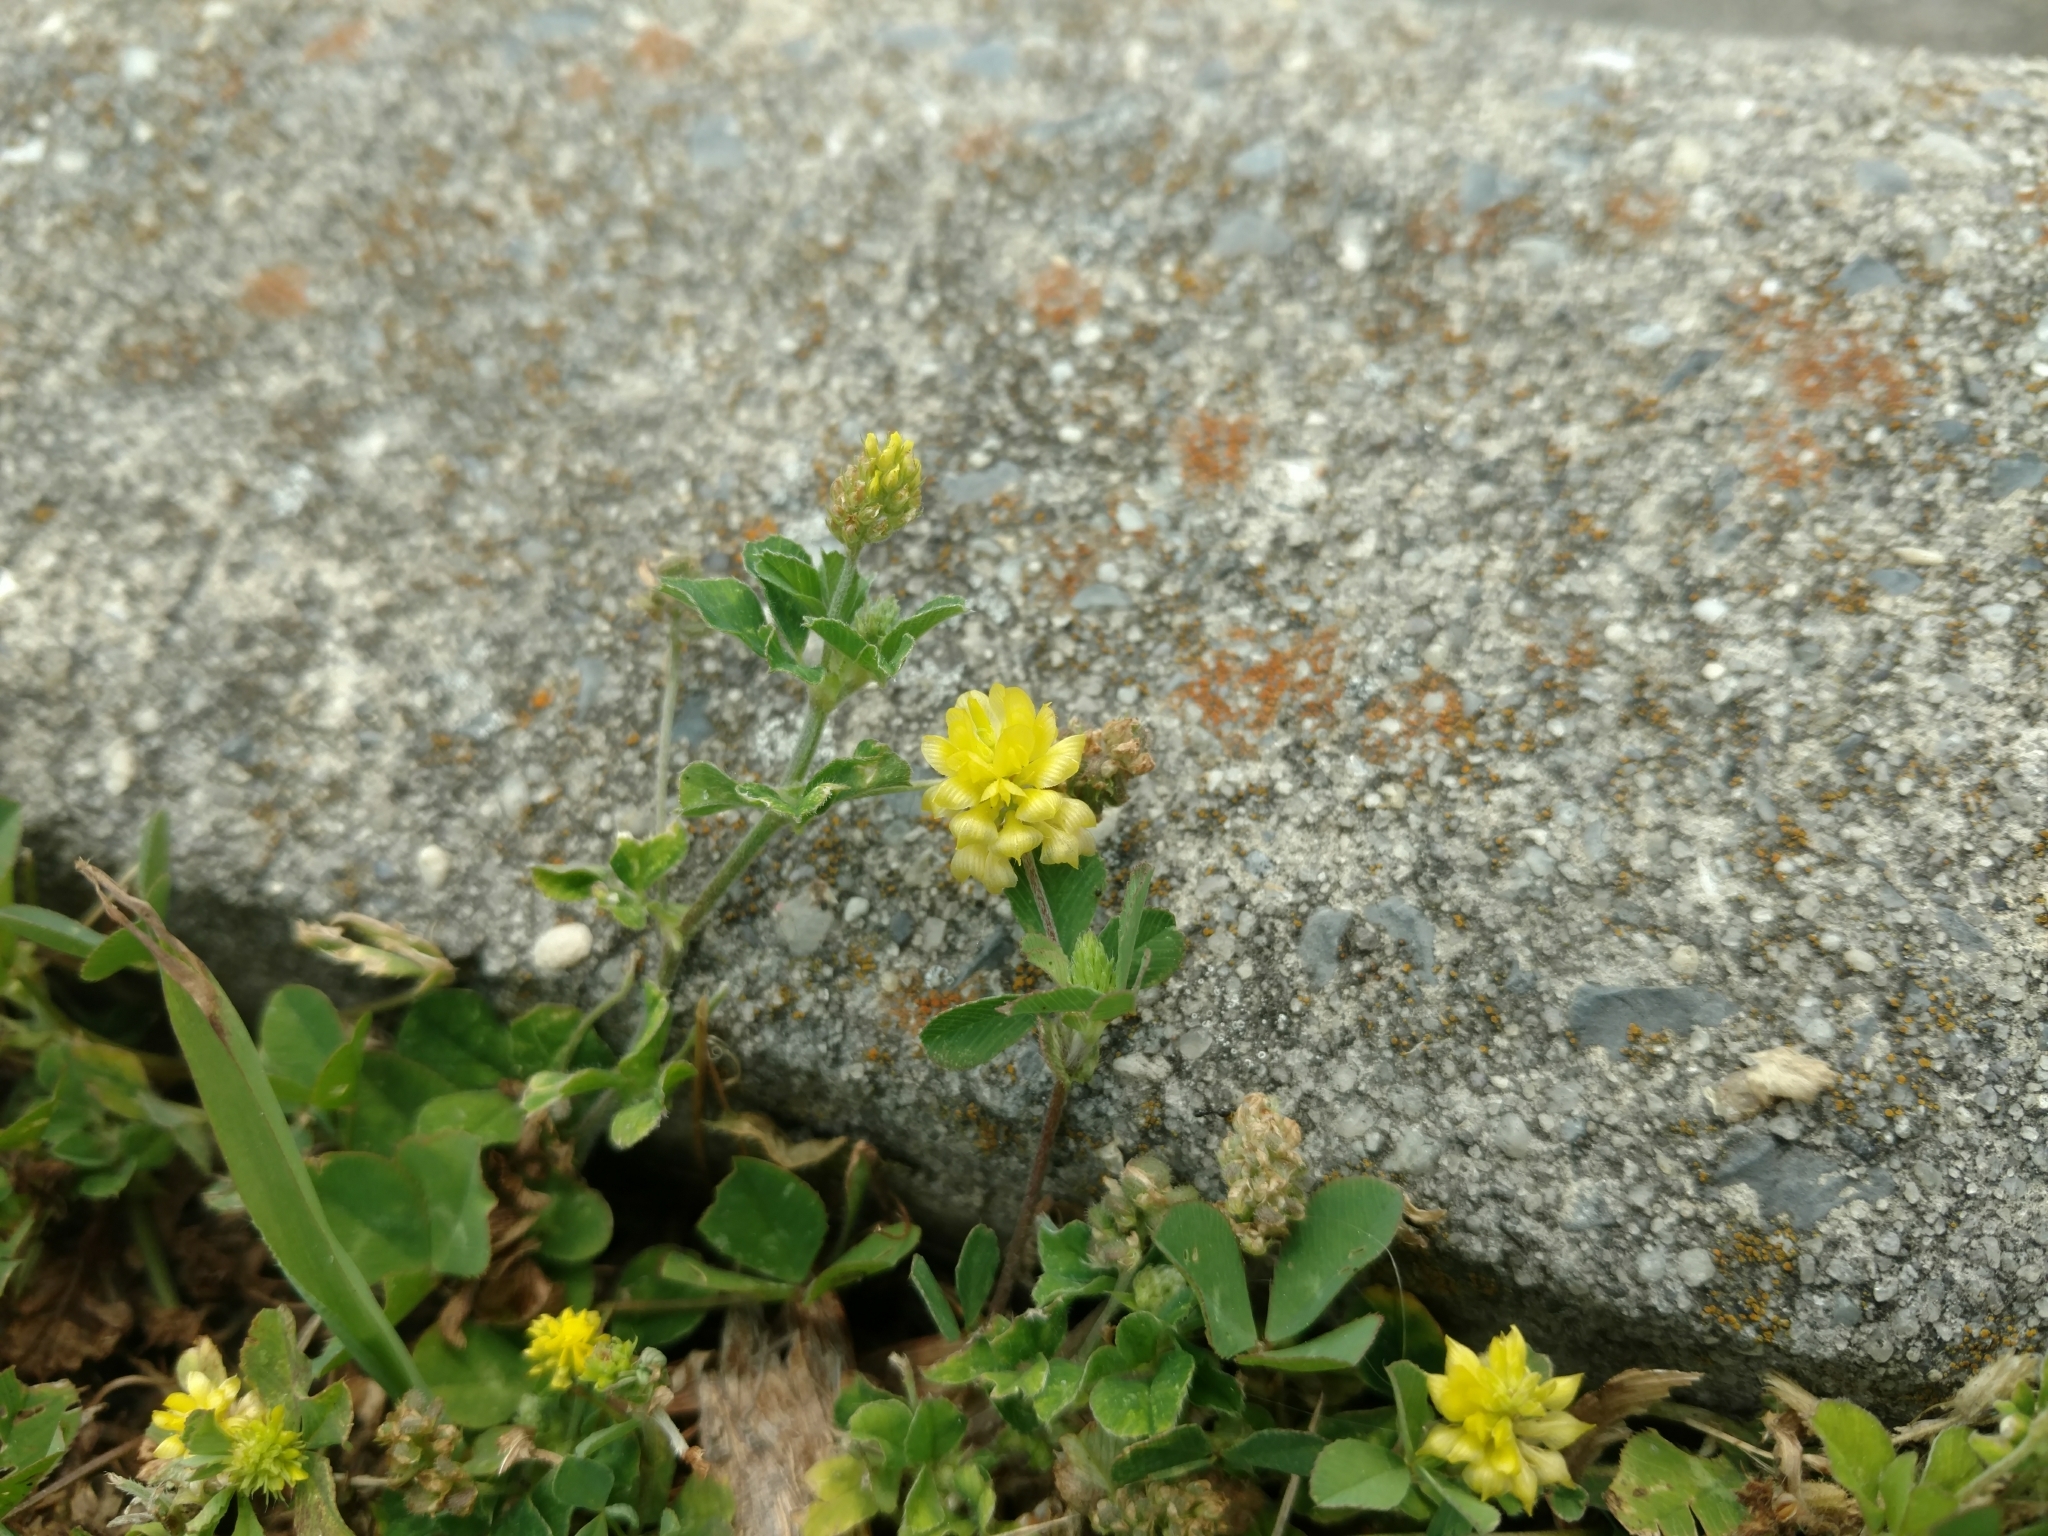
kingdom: Plantae
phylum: Tracheophyta
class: Magnoliopsida
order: Fabales
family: Fabaceae
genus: Trifolium
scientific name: Trifolium campestre
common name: Field clover
